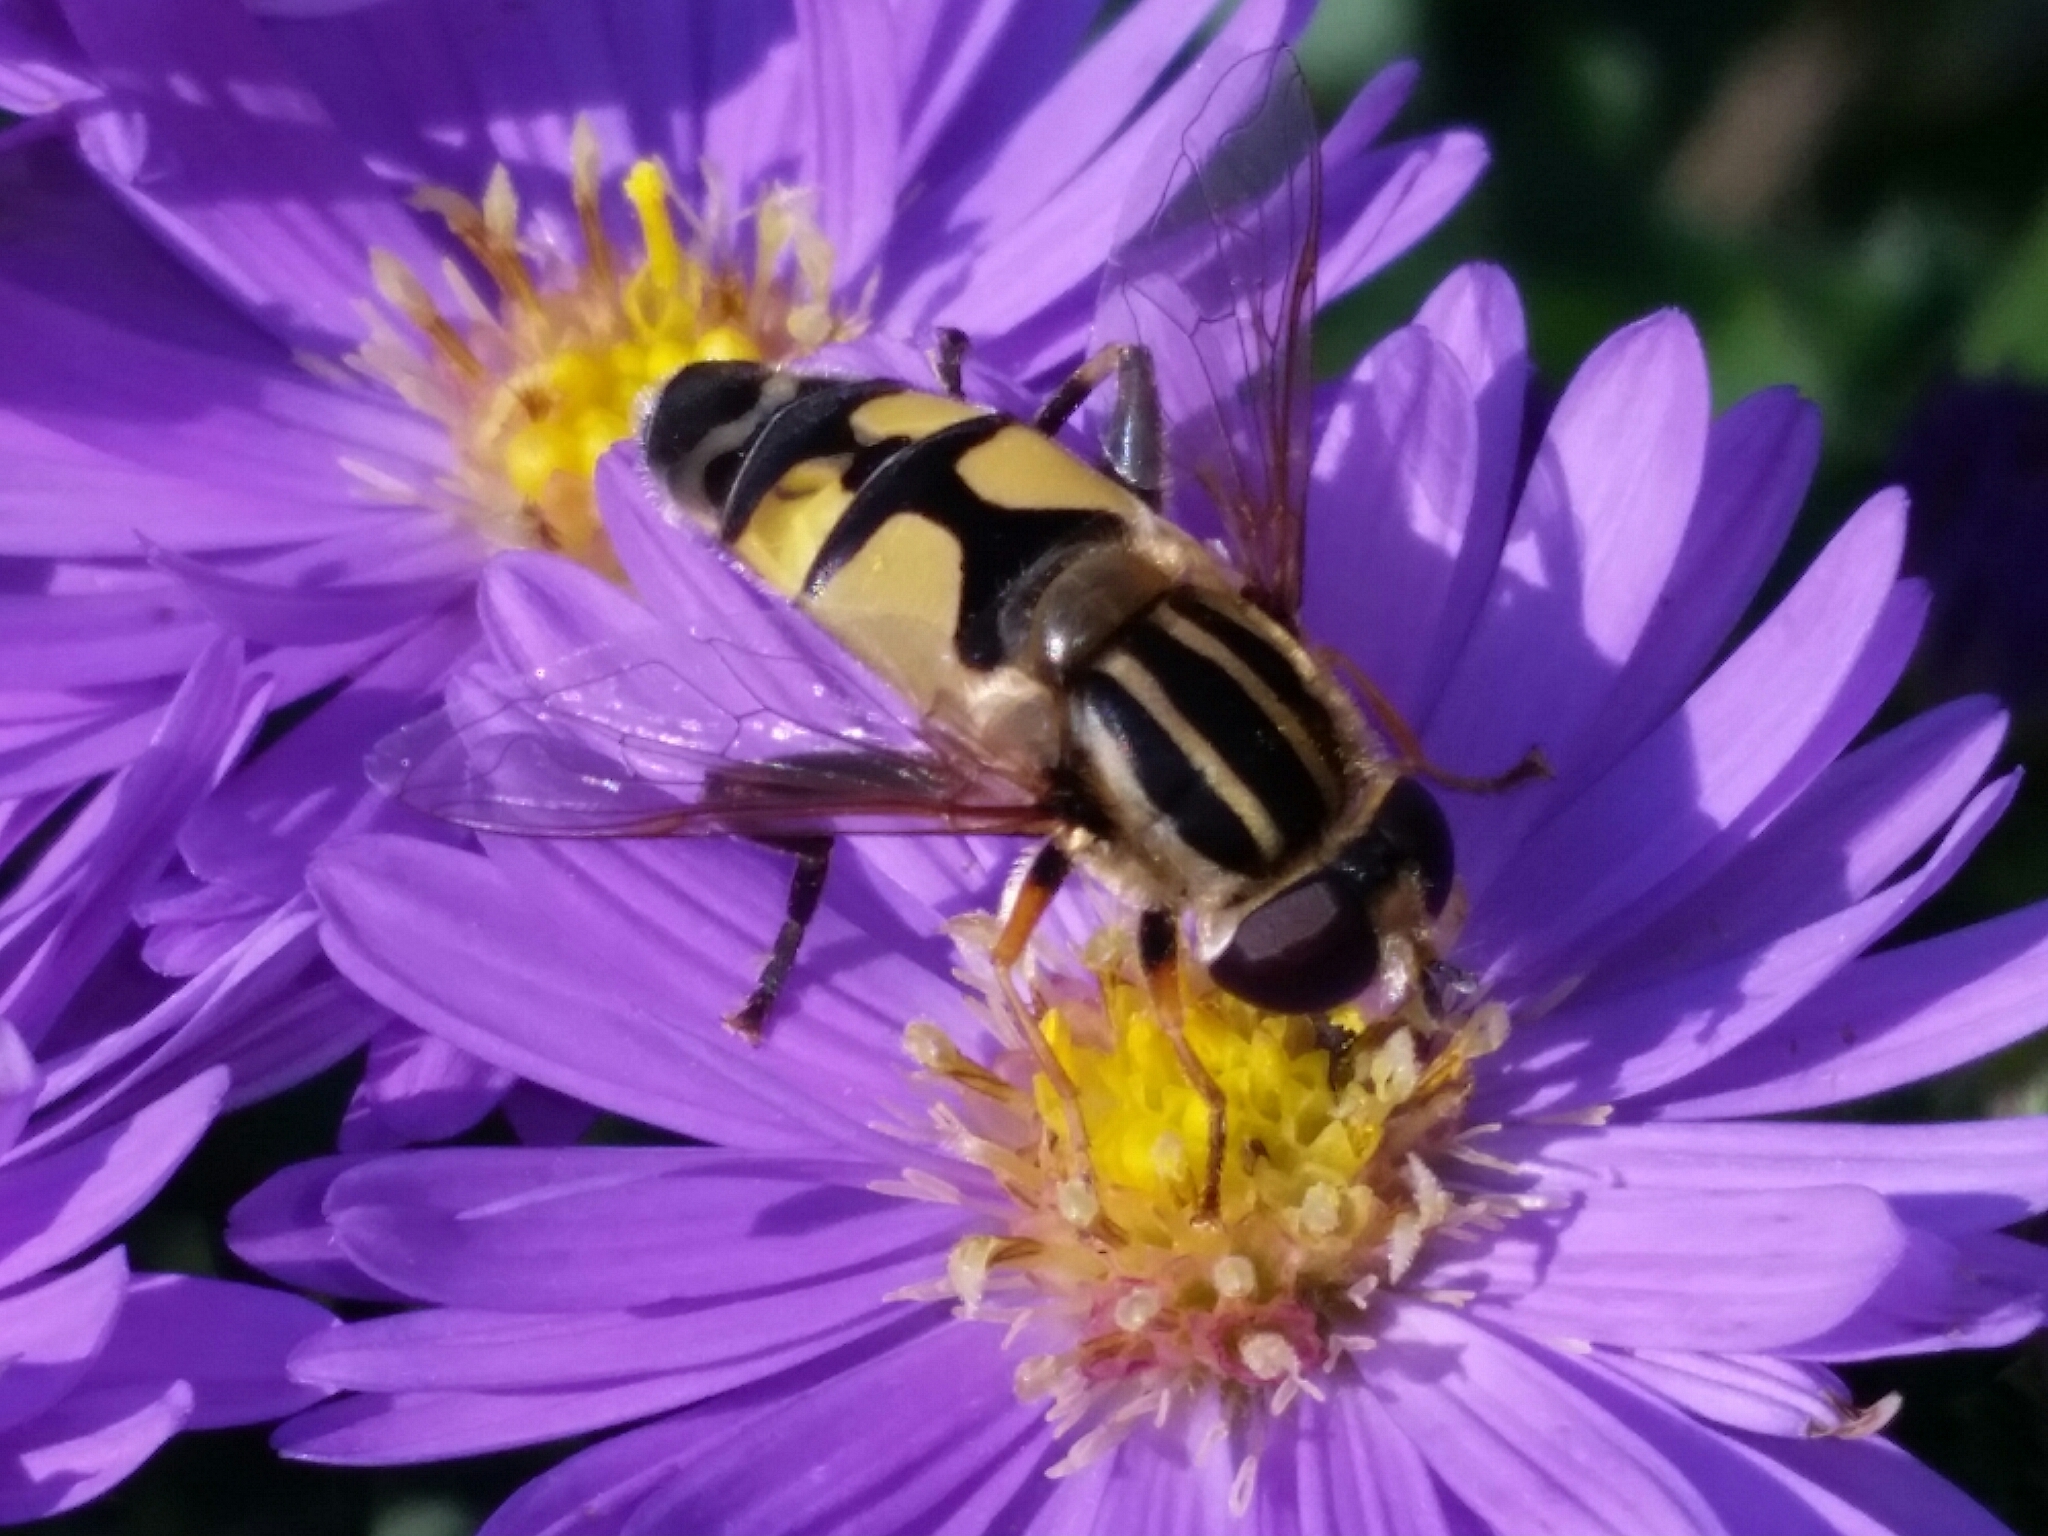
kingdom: Animalia
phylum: Arthropoda
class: Insecta
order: Diptera
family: Syrphidae
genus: Helophilus
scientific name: Helophilus trivittatus
